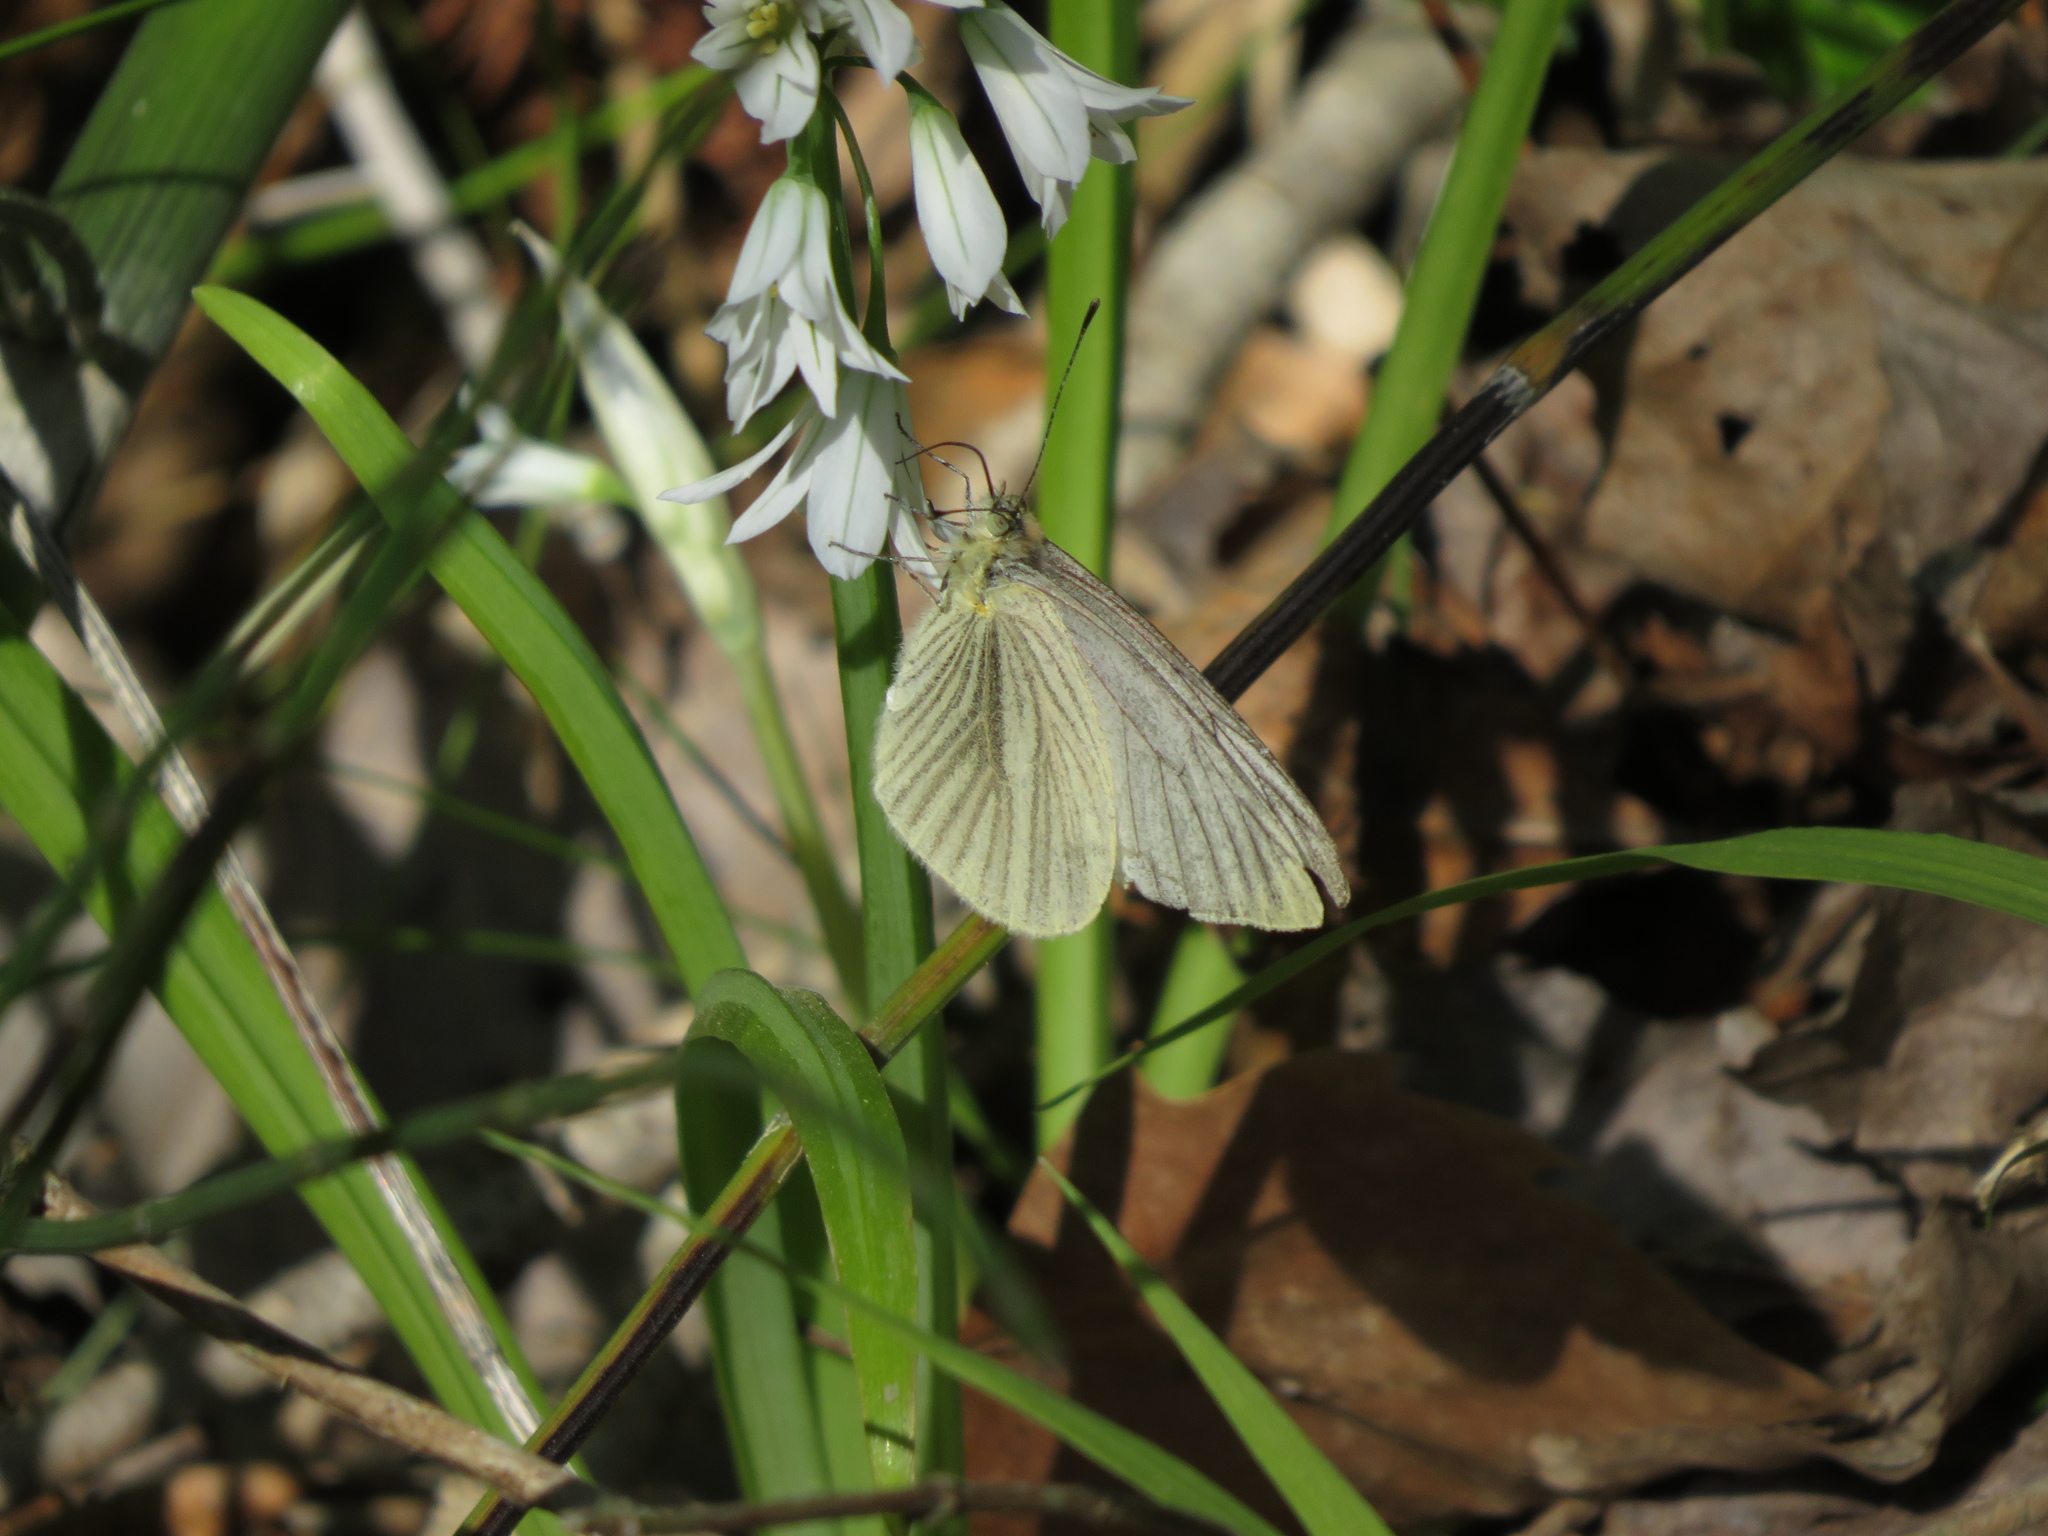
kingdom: Animalia
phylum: Arthropoda
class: Insecta
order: Lepidoptera
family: Pieridae
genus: Theochila
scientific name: Theochila maenacte
